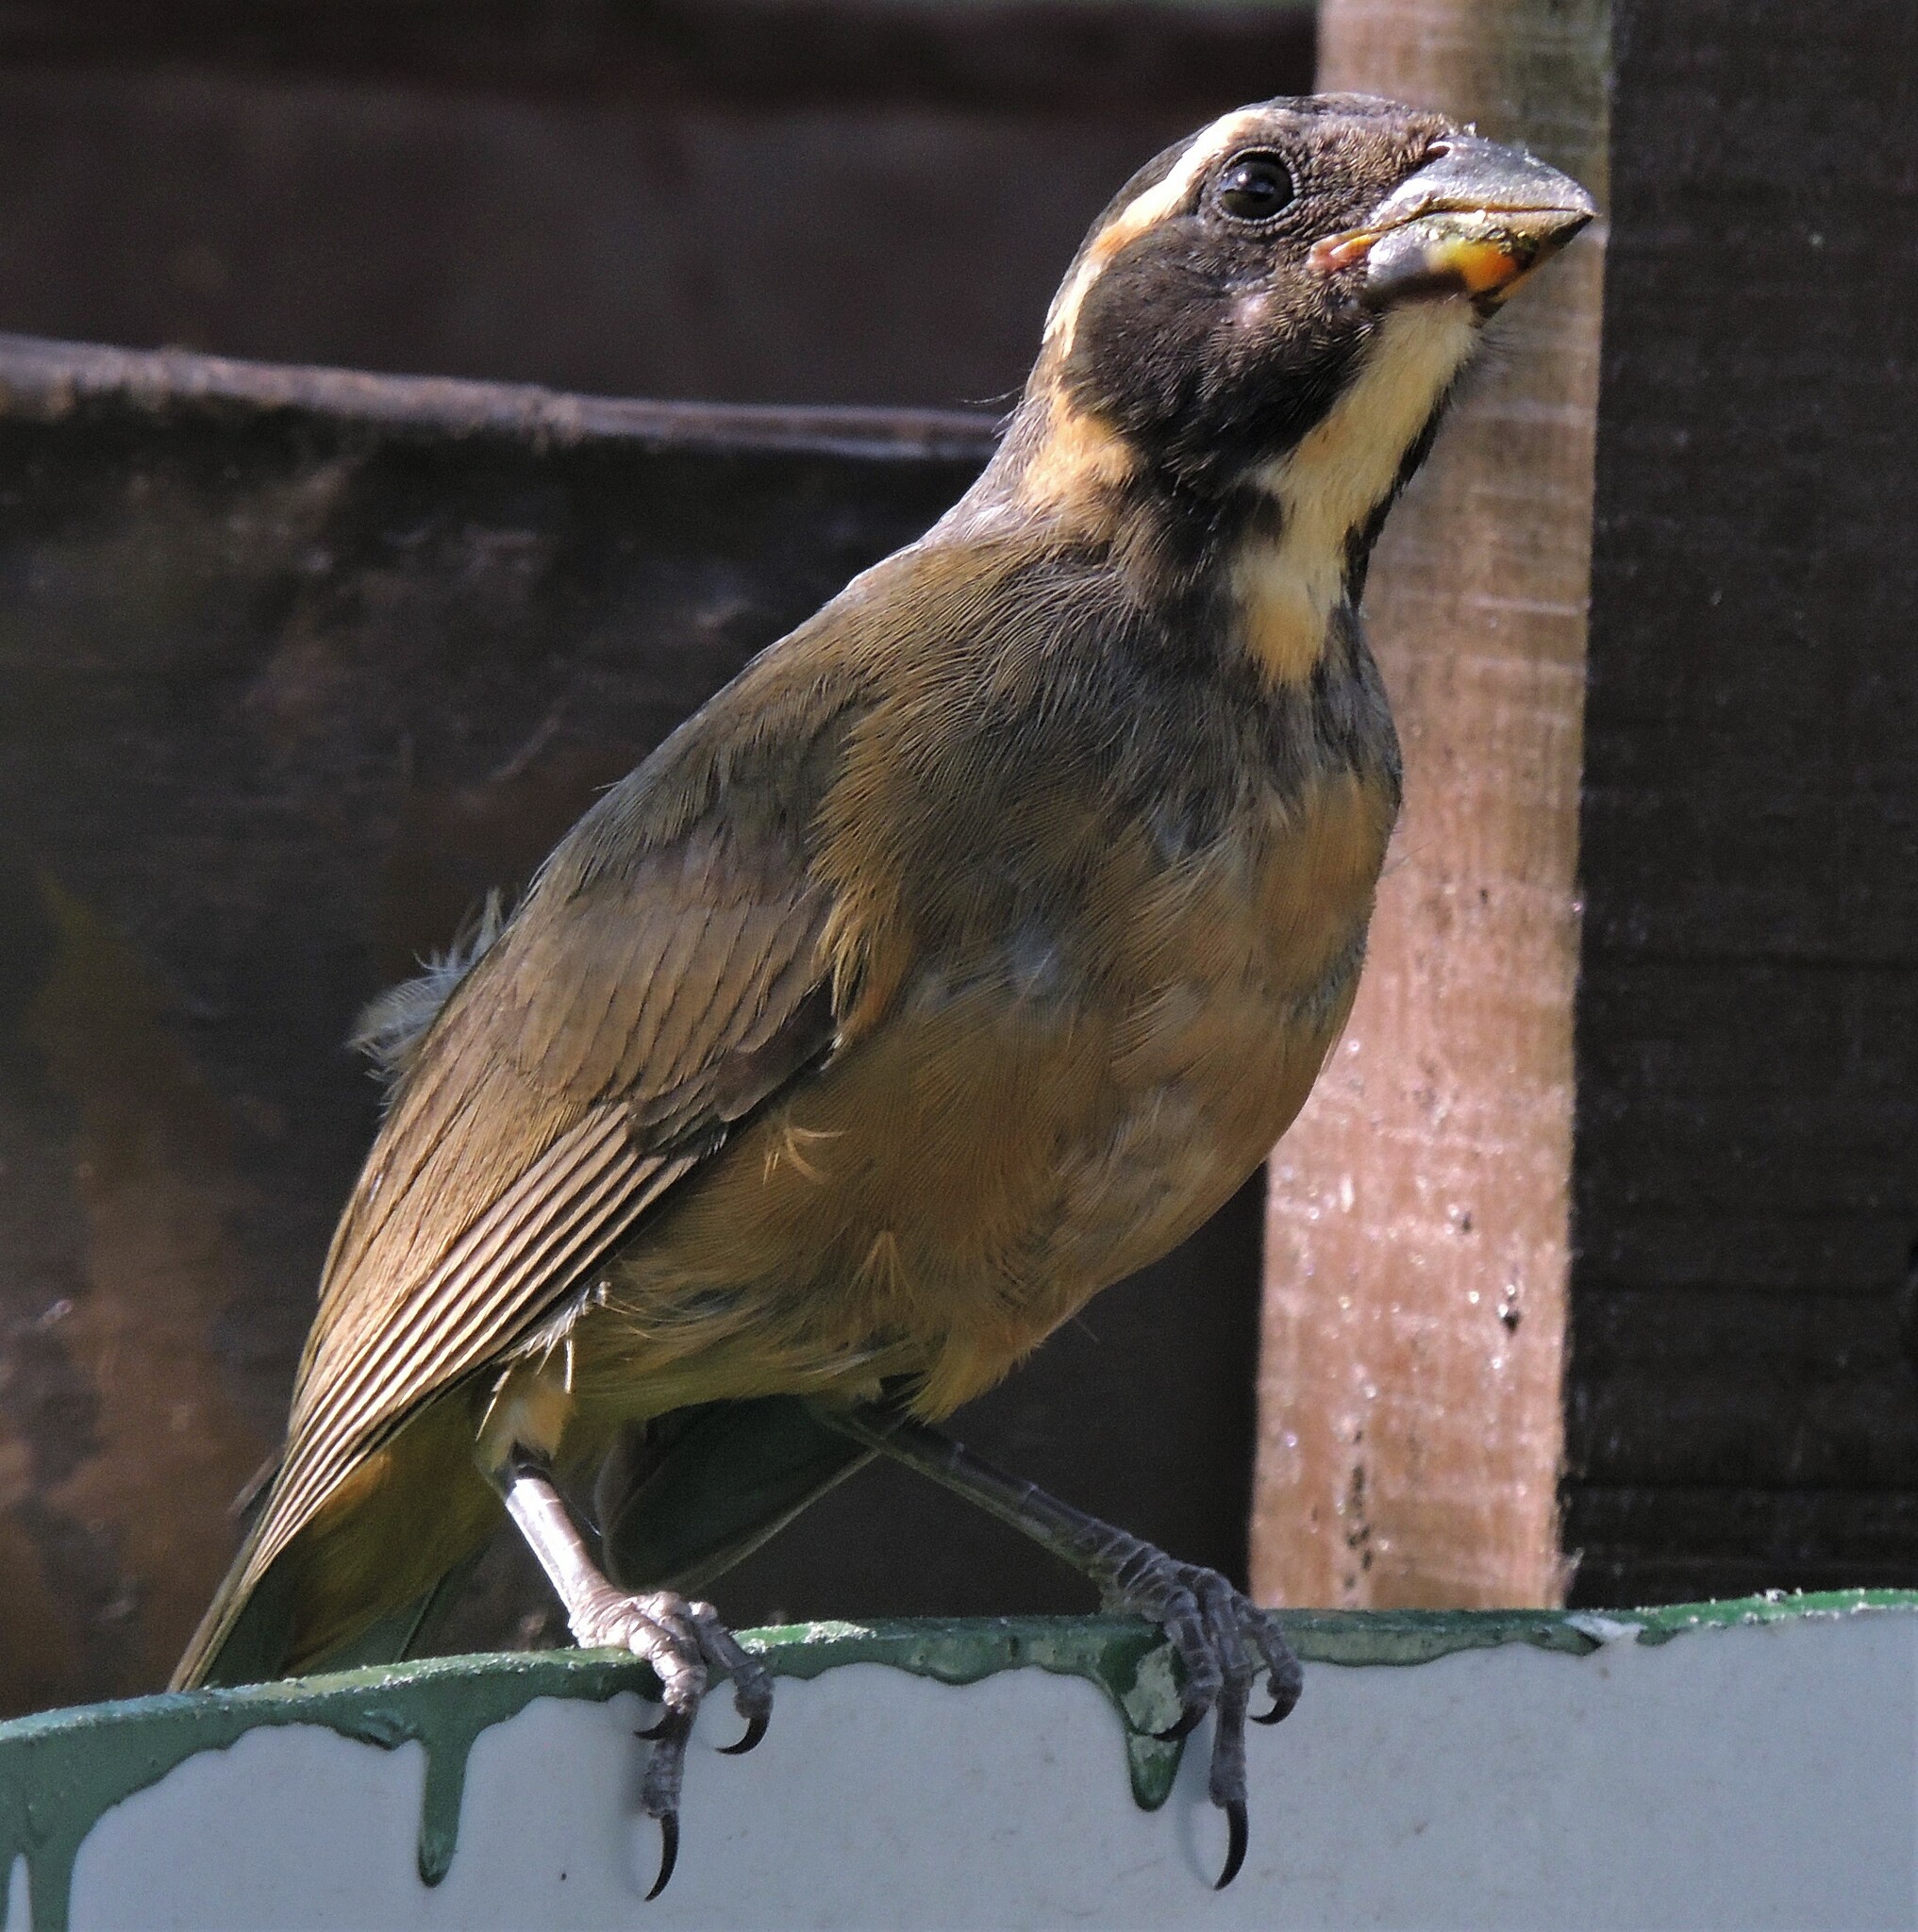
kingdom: Animalia
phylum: Chordata
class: Aves
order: Passeriformes
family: Thraupidae
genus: Saltator
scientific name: Saltator aurantiirostris
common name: Golden-billed saltator
